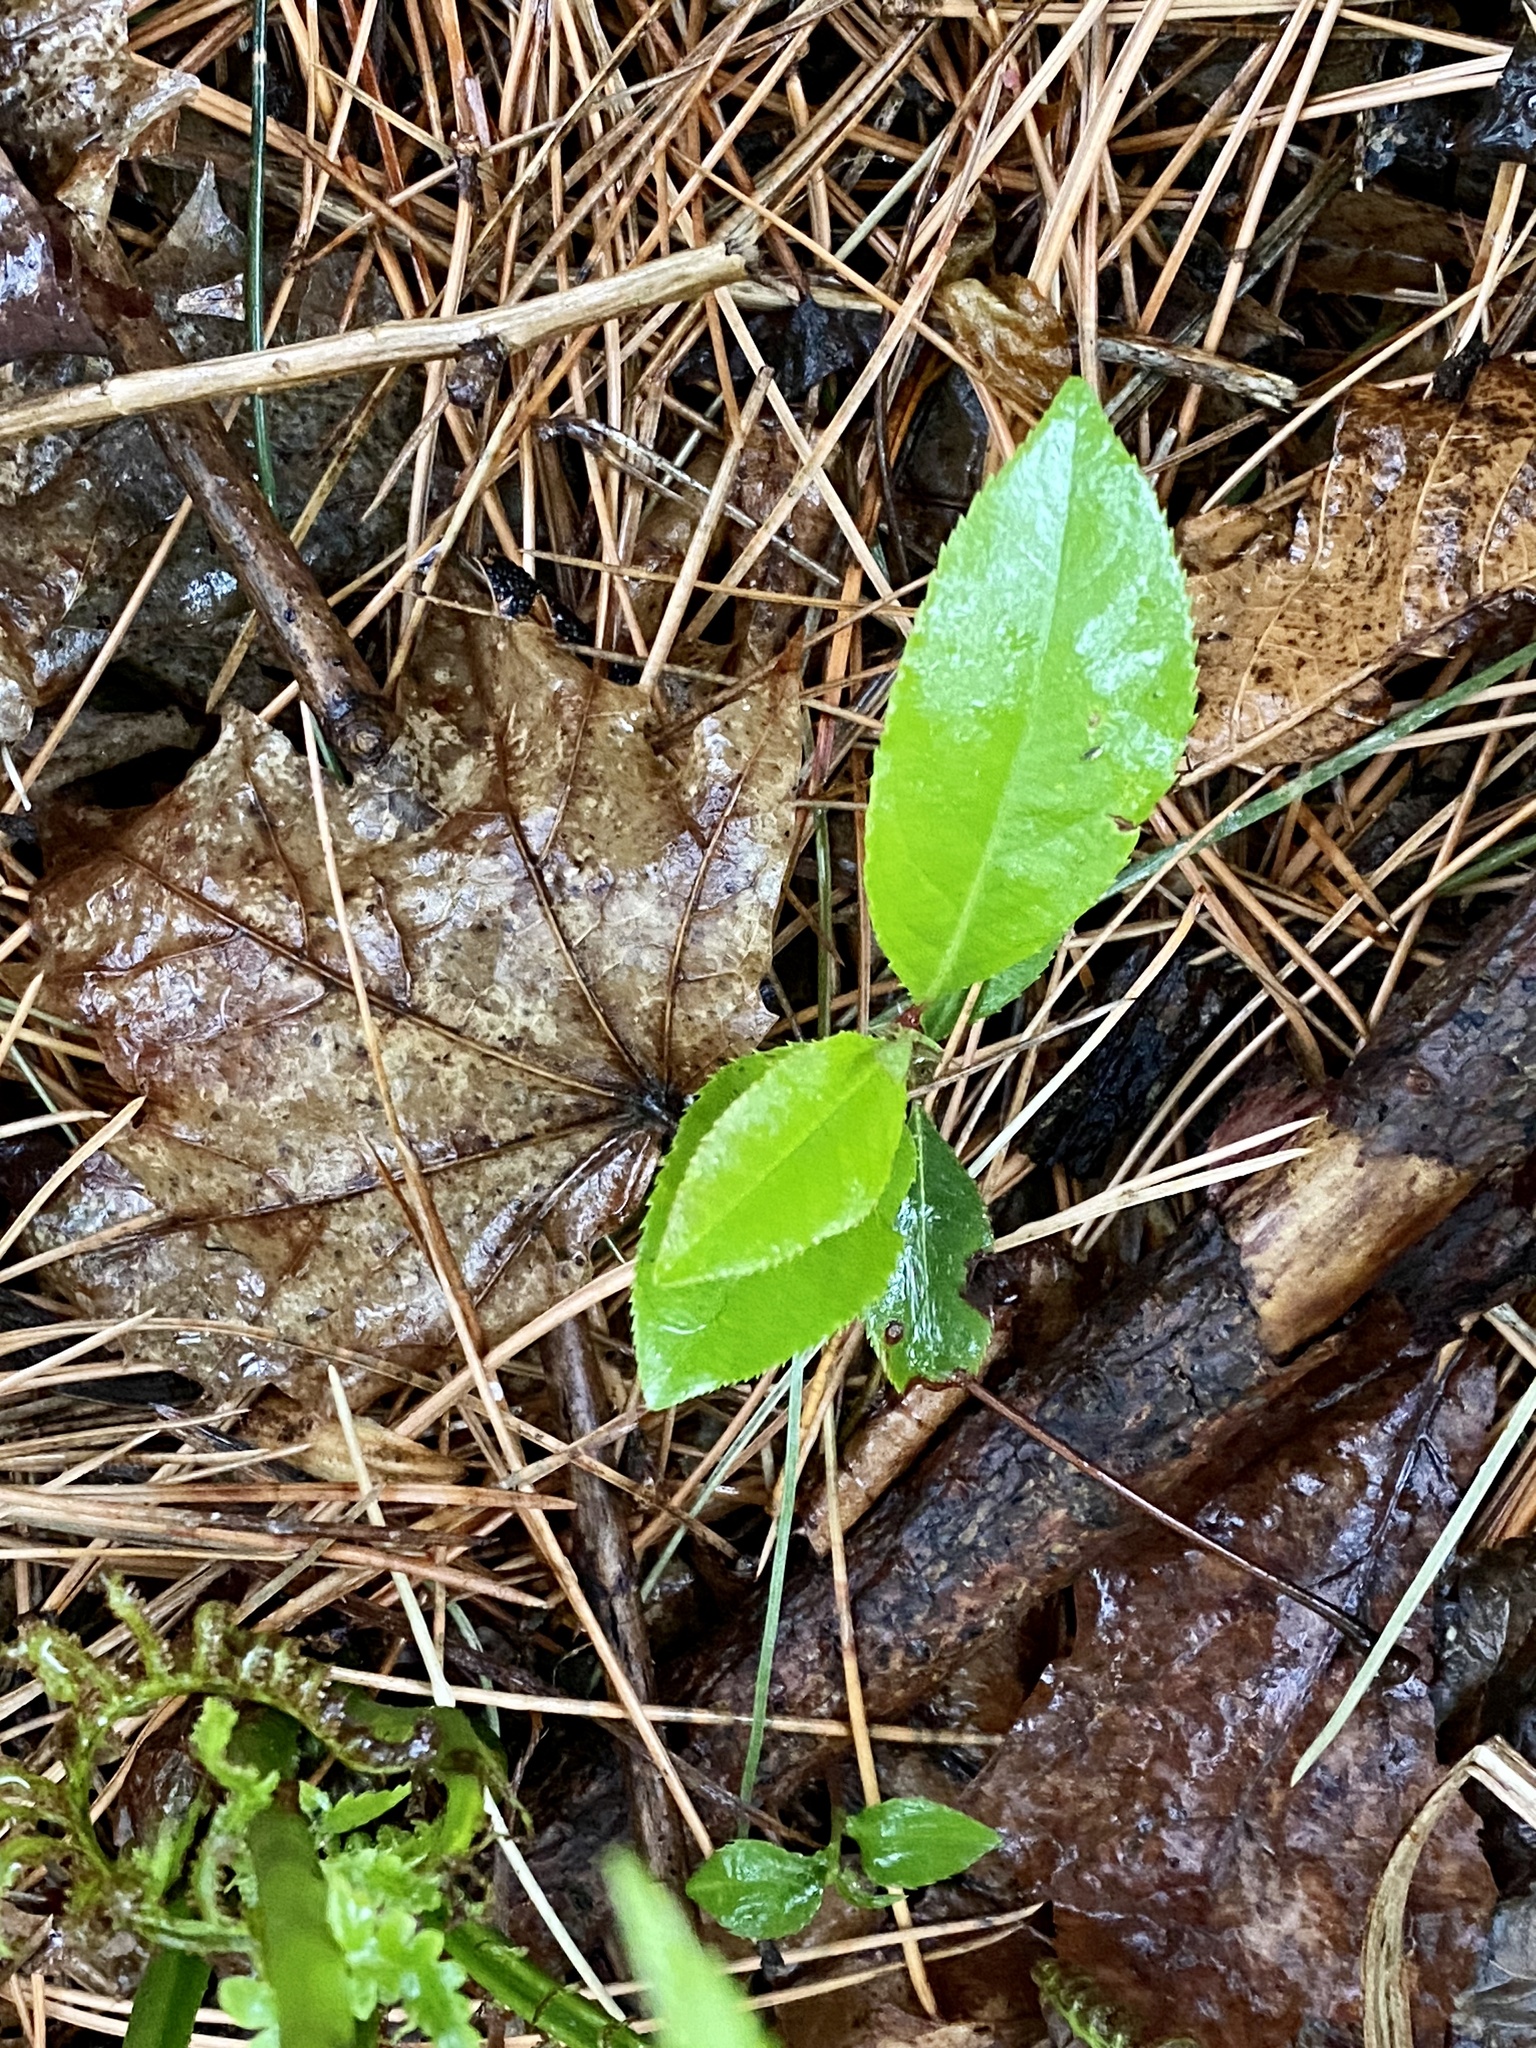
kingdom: Plantae
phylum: Tracheophyta
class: Magnoliopsida
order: Rosales
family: Rosaceae
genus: Prunus
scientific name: Prunus serotina
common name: Black cherry
